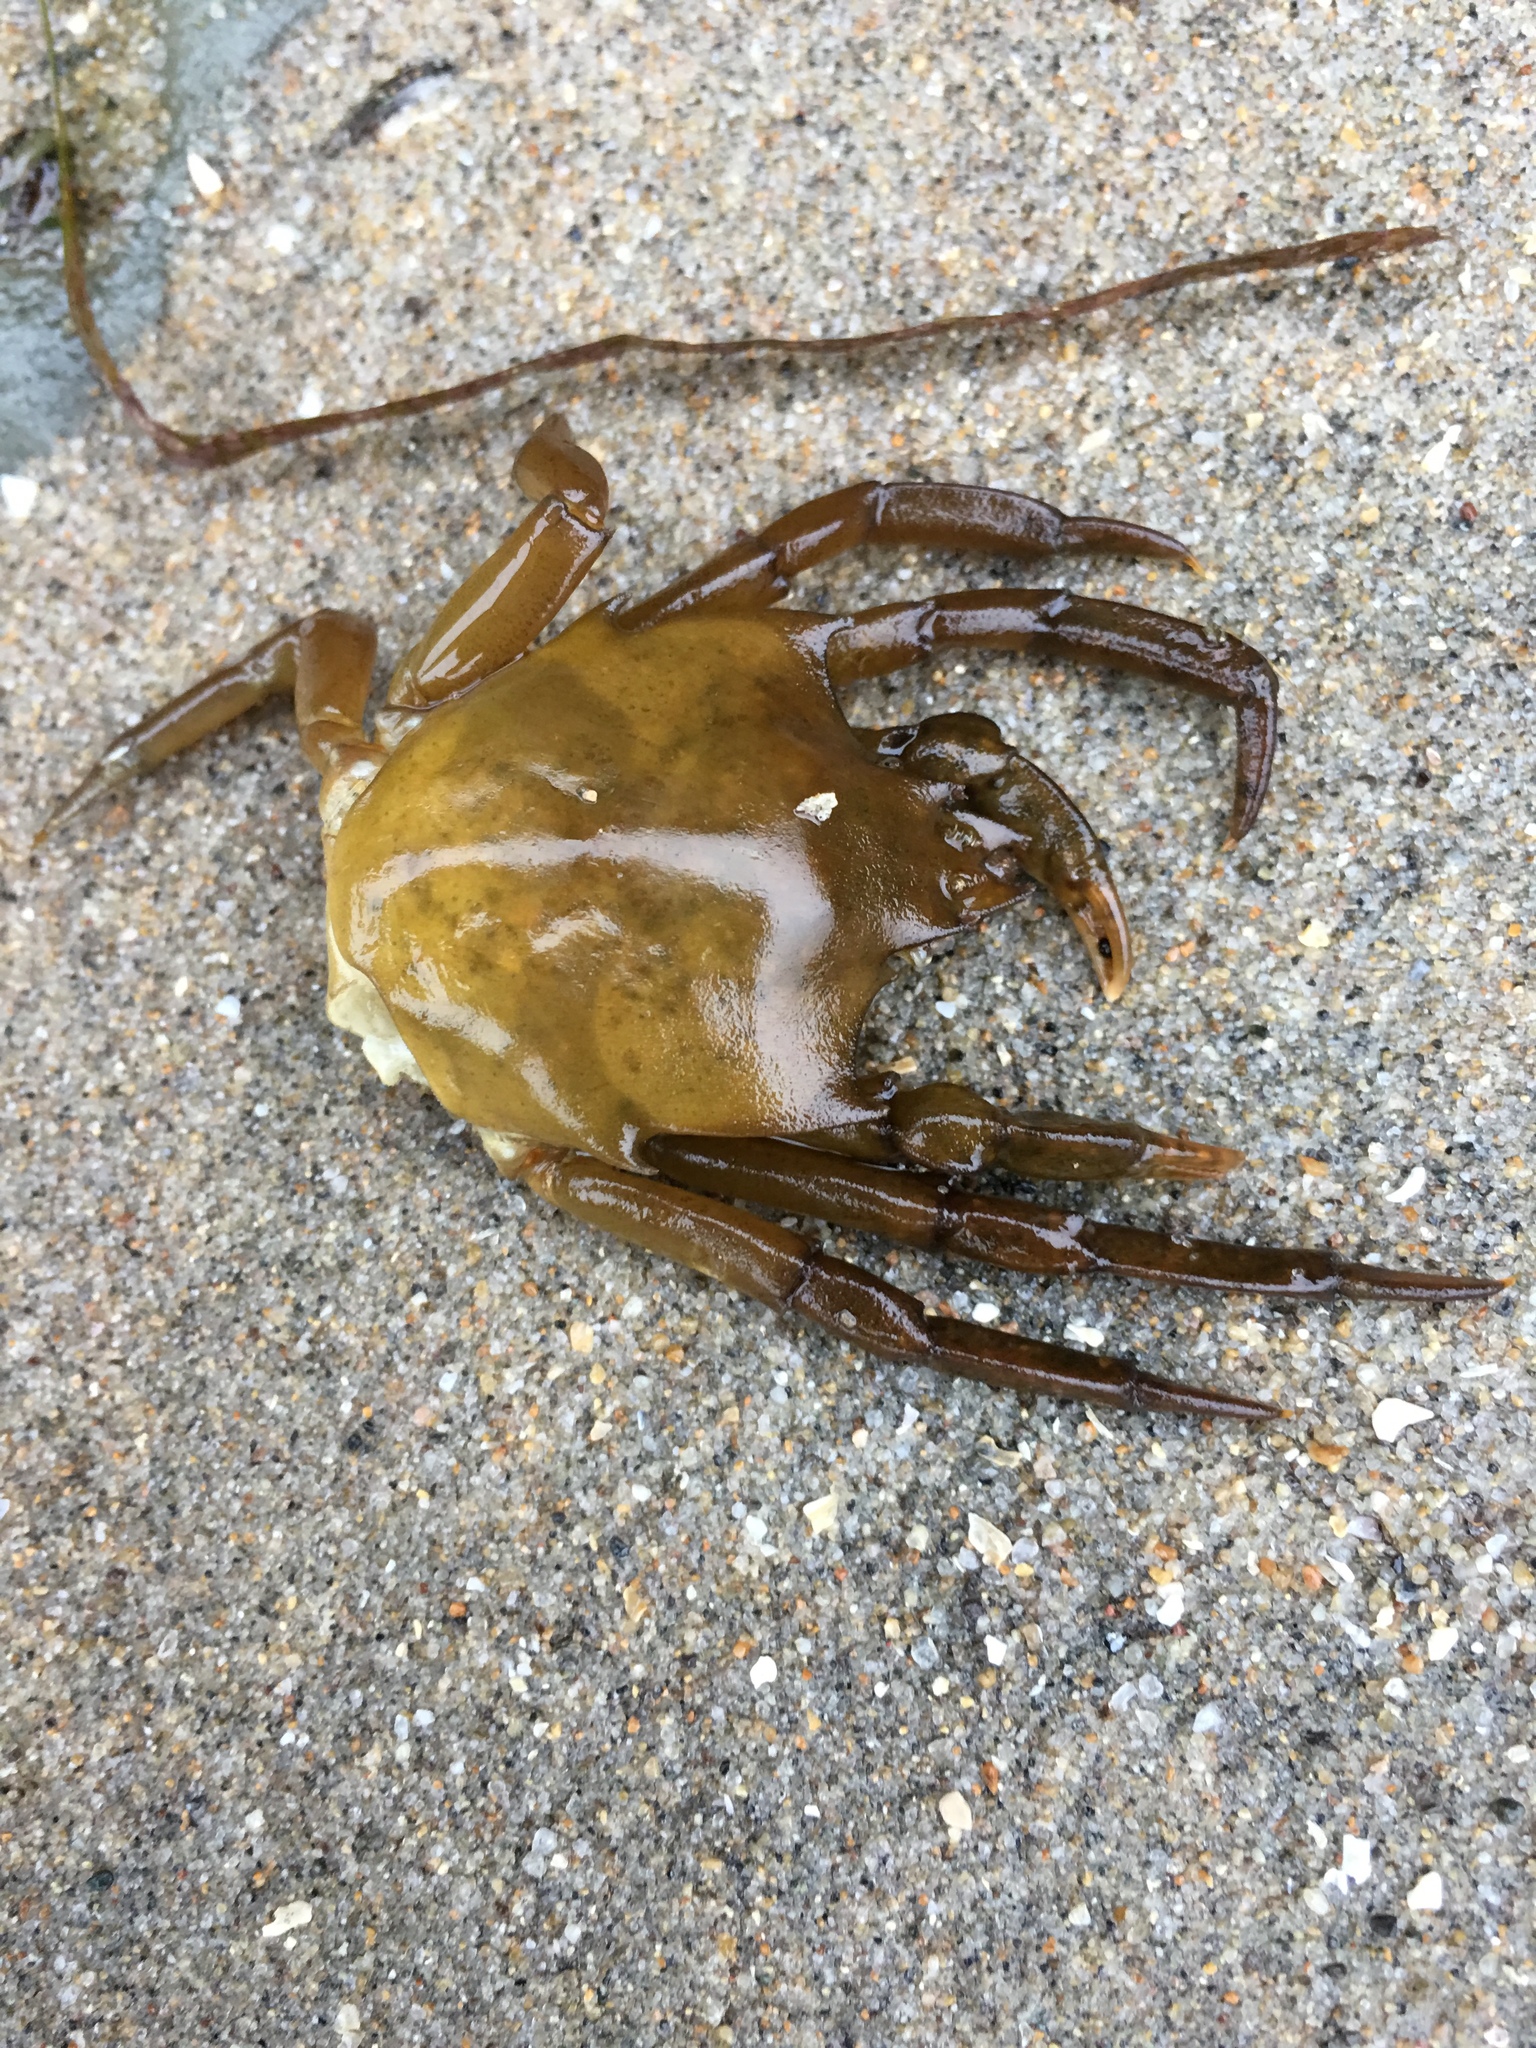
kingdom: Animalia
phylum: Arthropoda
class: Malacostraca
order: Decapoda
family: Epialtidae
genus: Pugettia
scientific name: Pugettia producta
